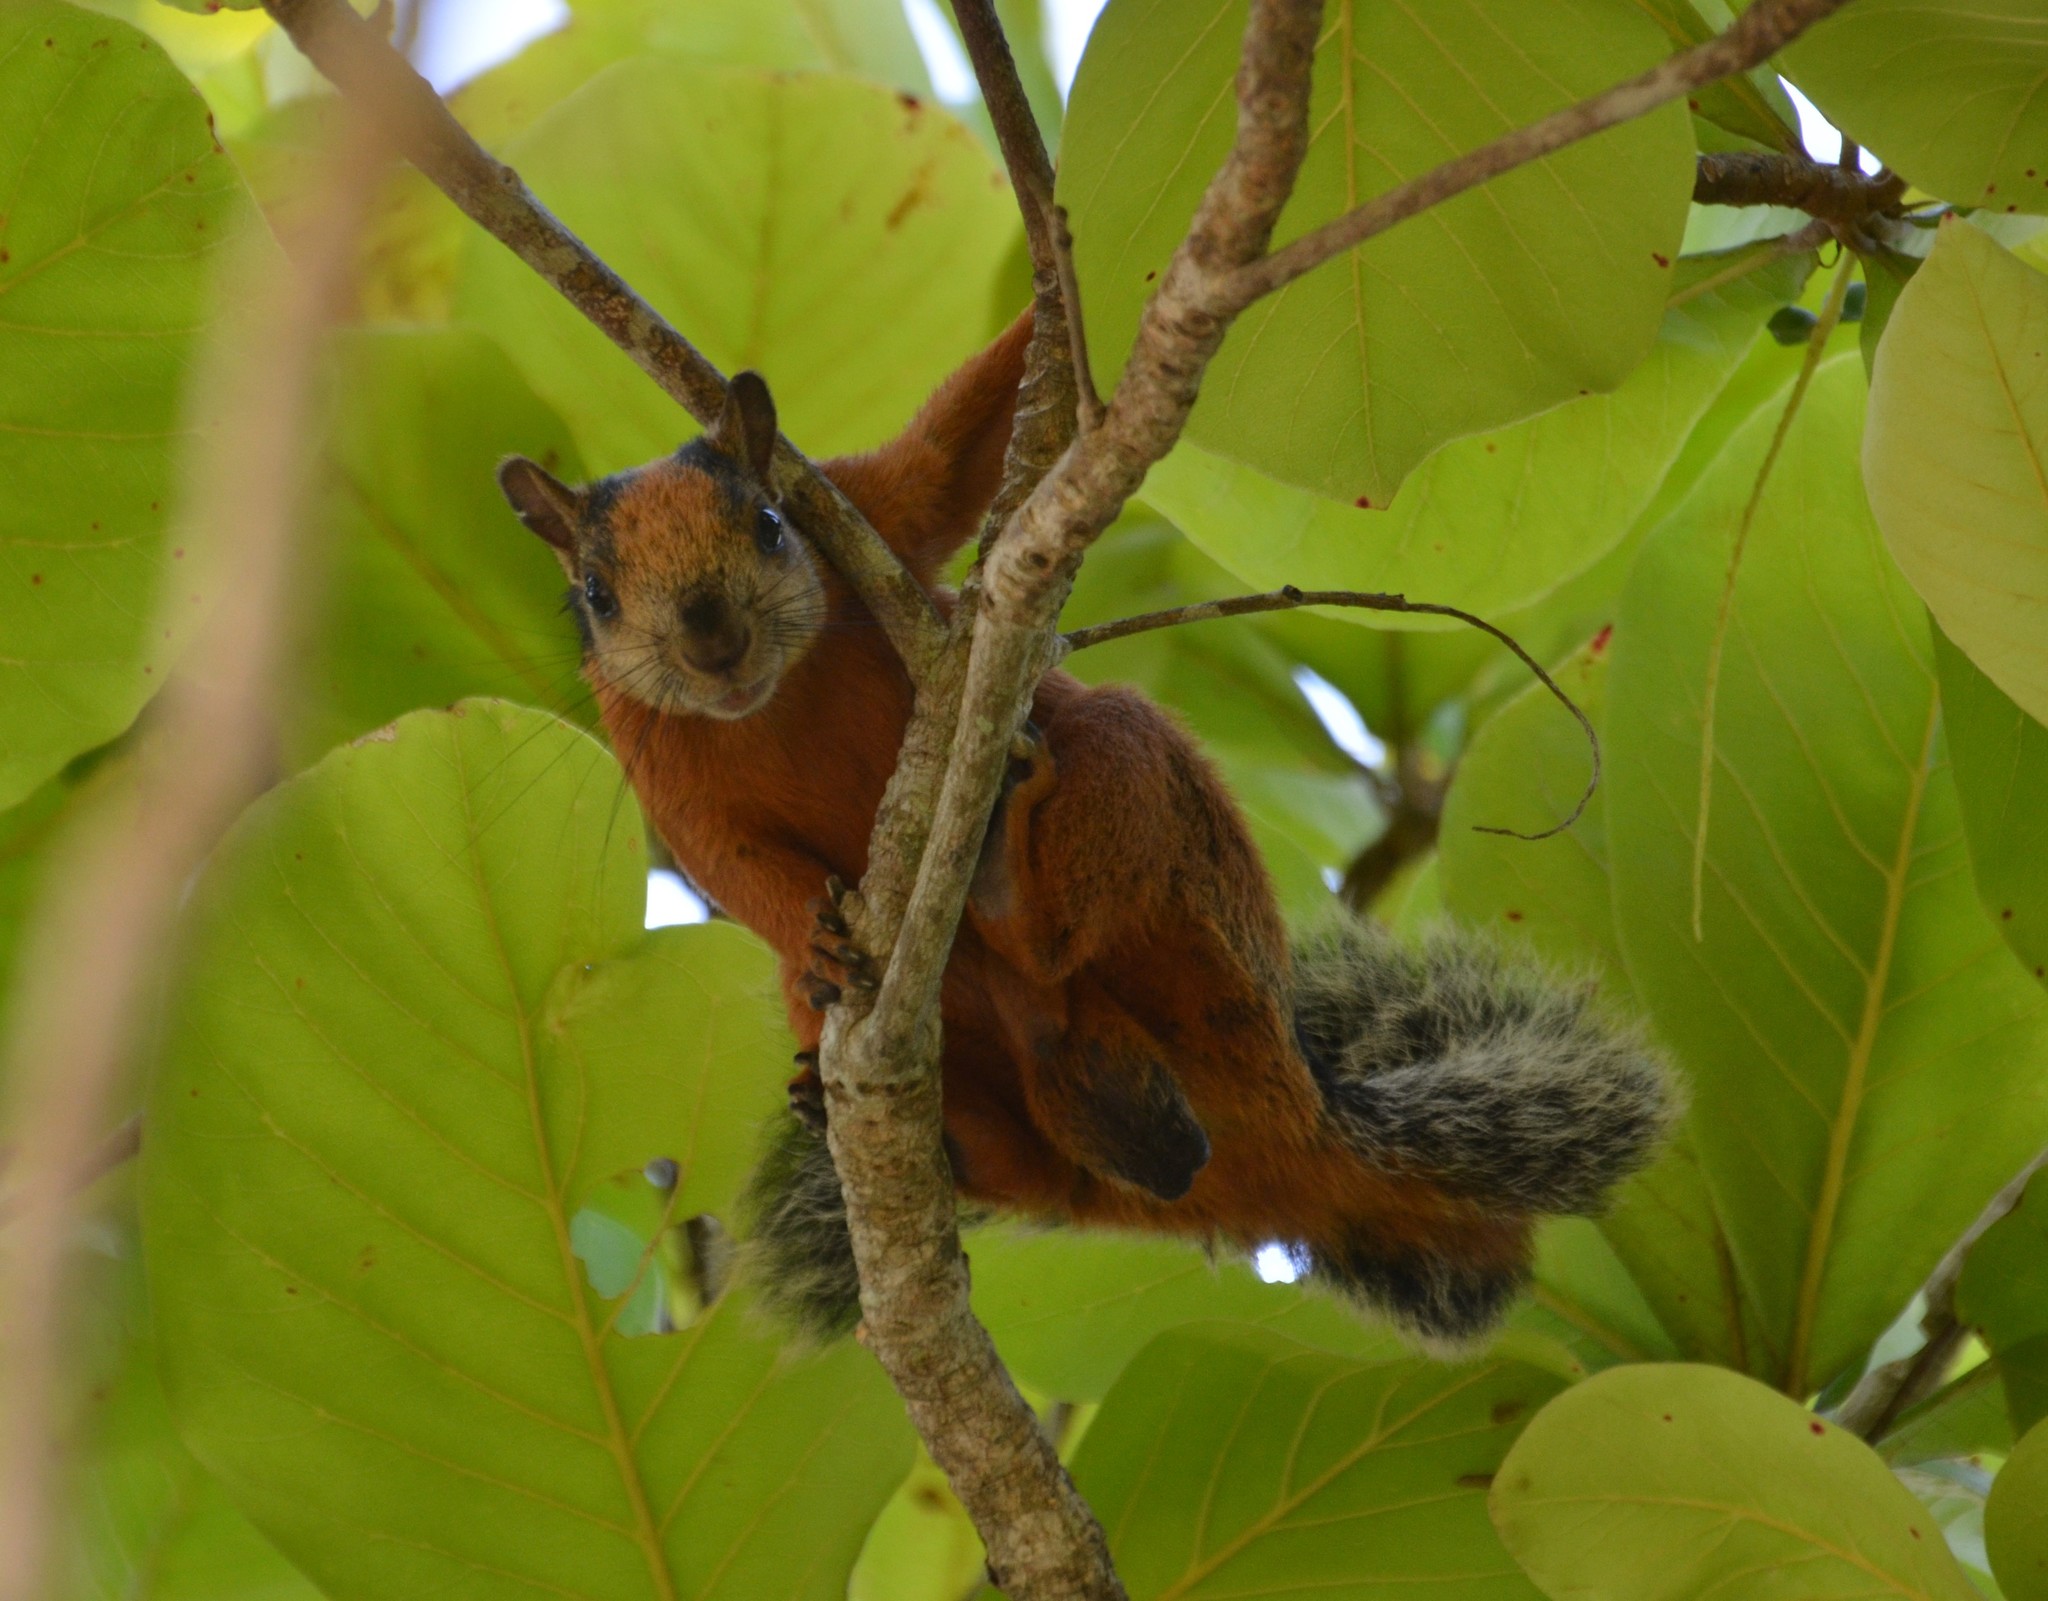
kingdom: Animalia
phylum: Chordata
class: Mammalia
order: Rodentia
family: Sciuridae
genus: Sciurus
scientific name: Sciurus variegatoides
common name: Variegated squirrel
